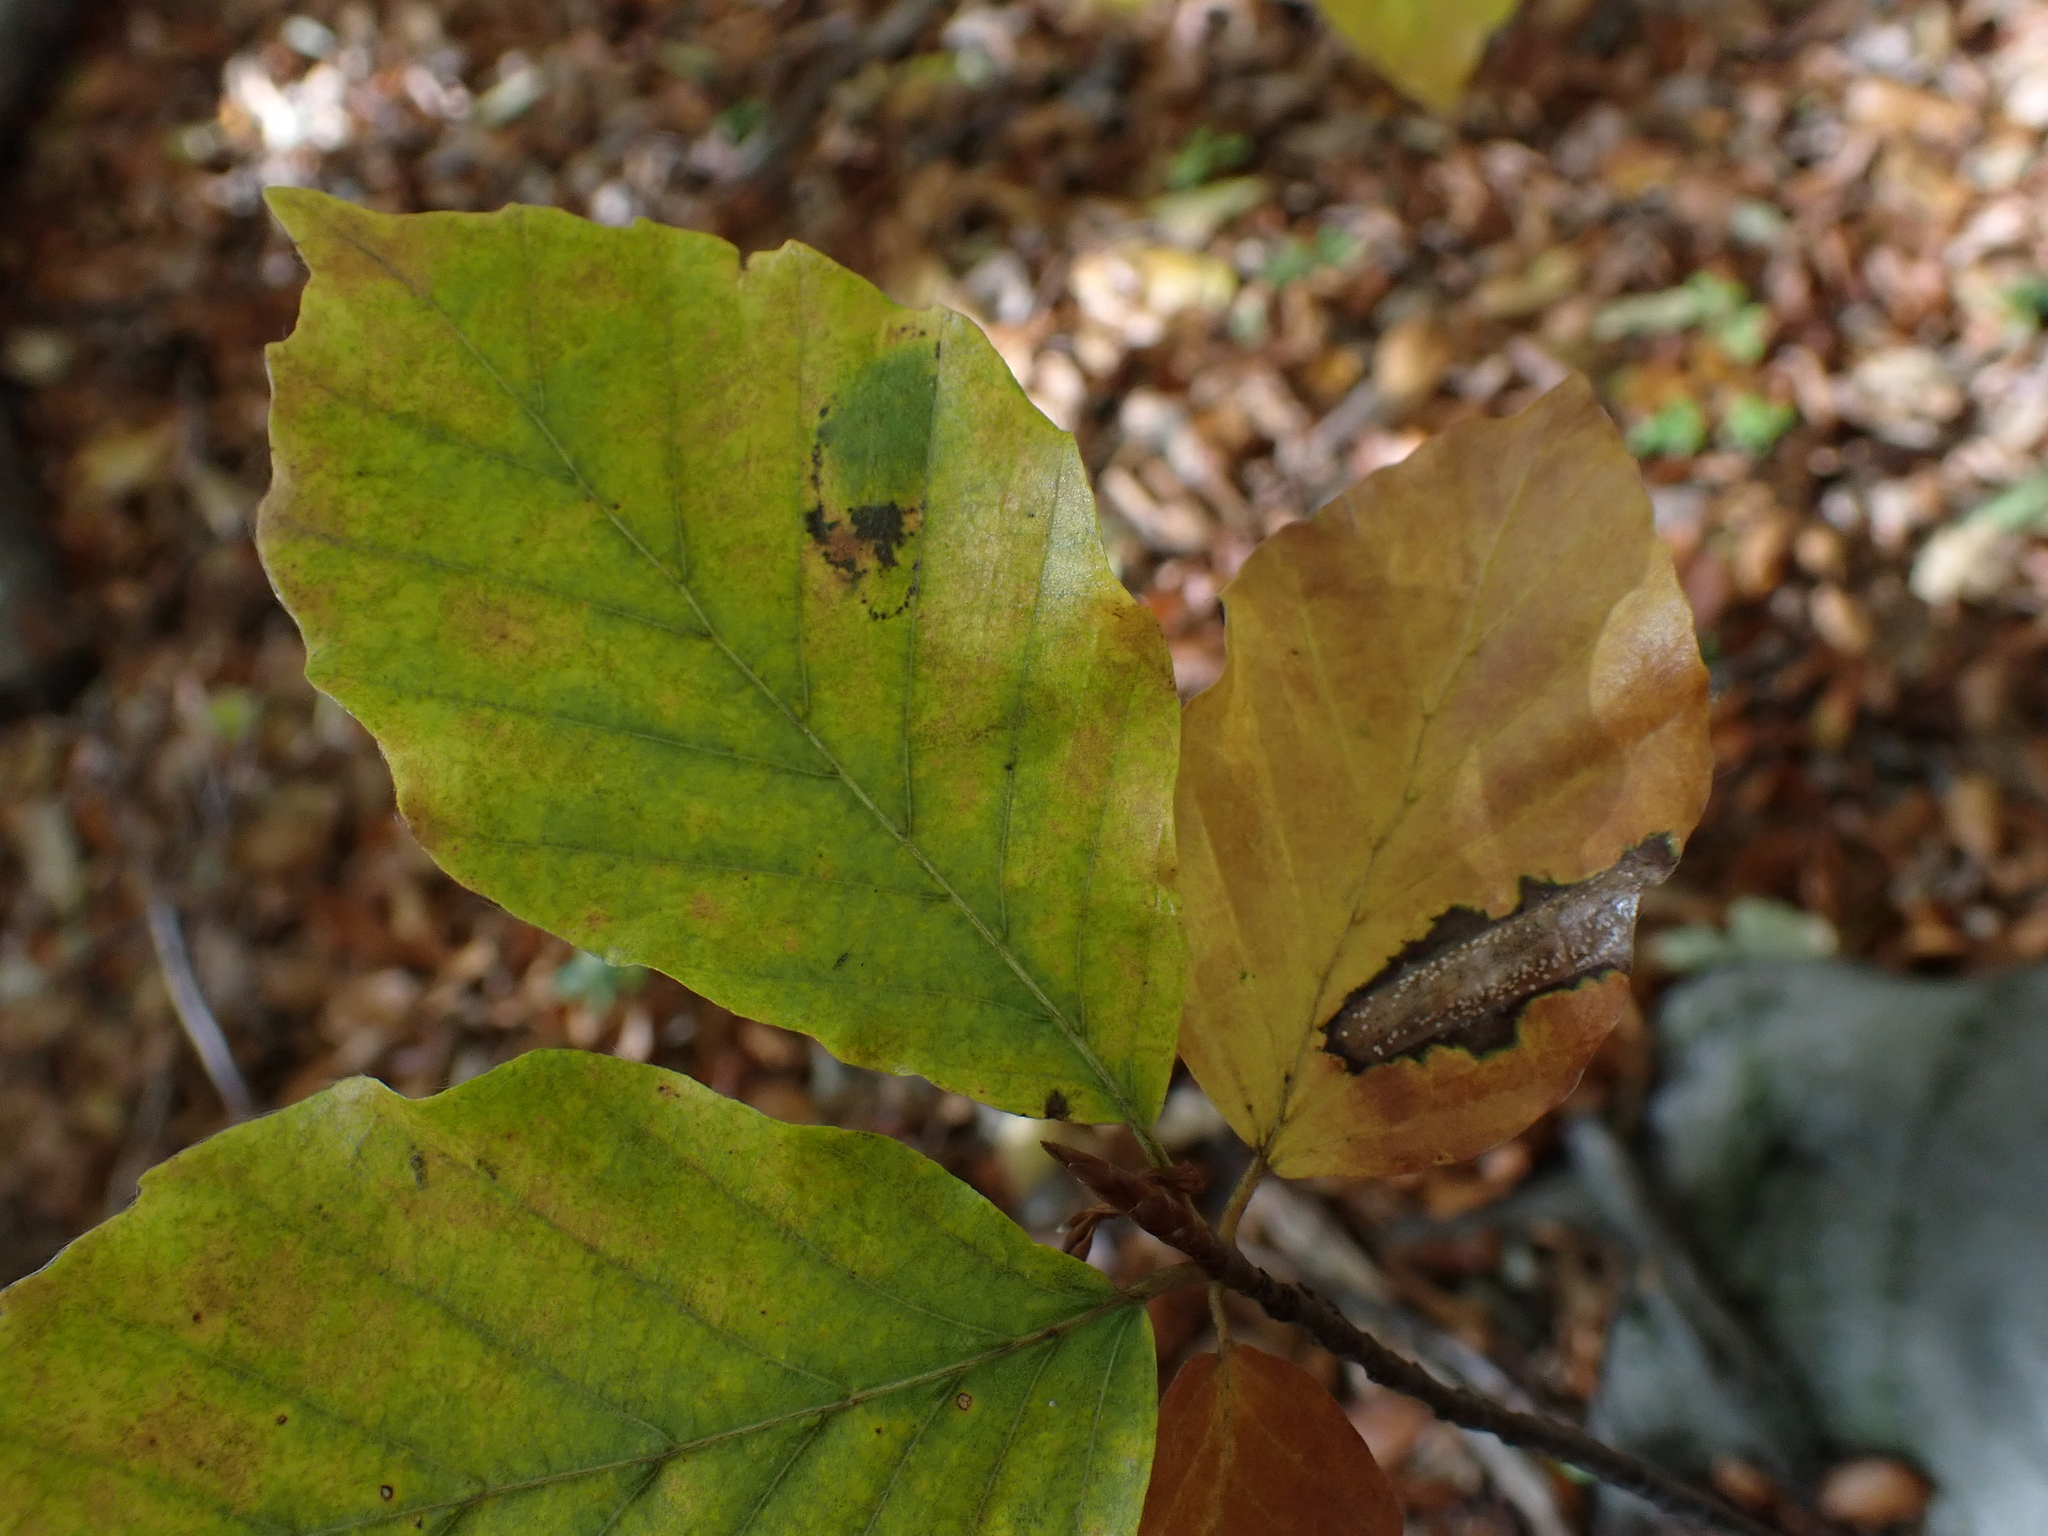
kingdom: Animalia
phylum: Arthropoda
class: Insecta
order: Lepidoptera
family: Gracillariidae
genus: Phyllonorycter
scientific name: Phyllonorycter maestingella
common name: Beech midget
